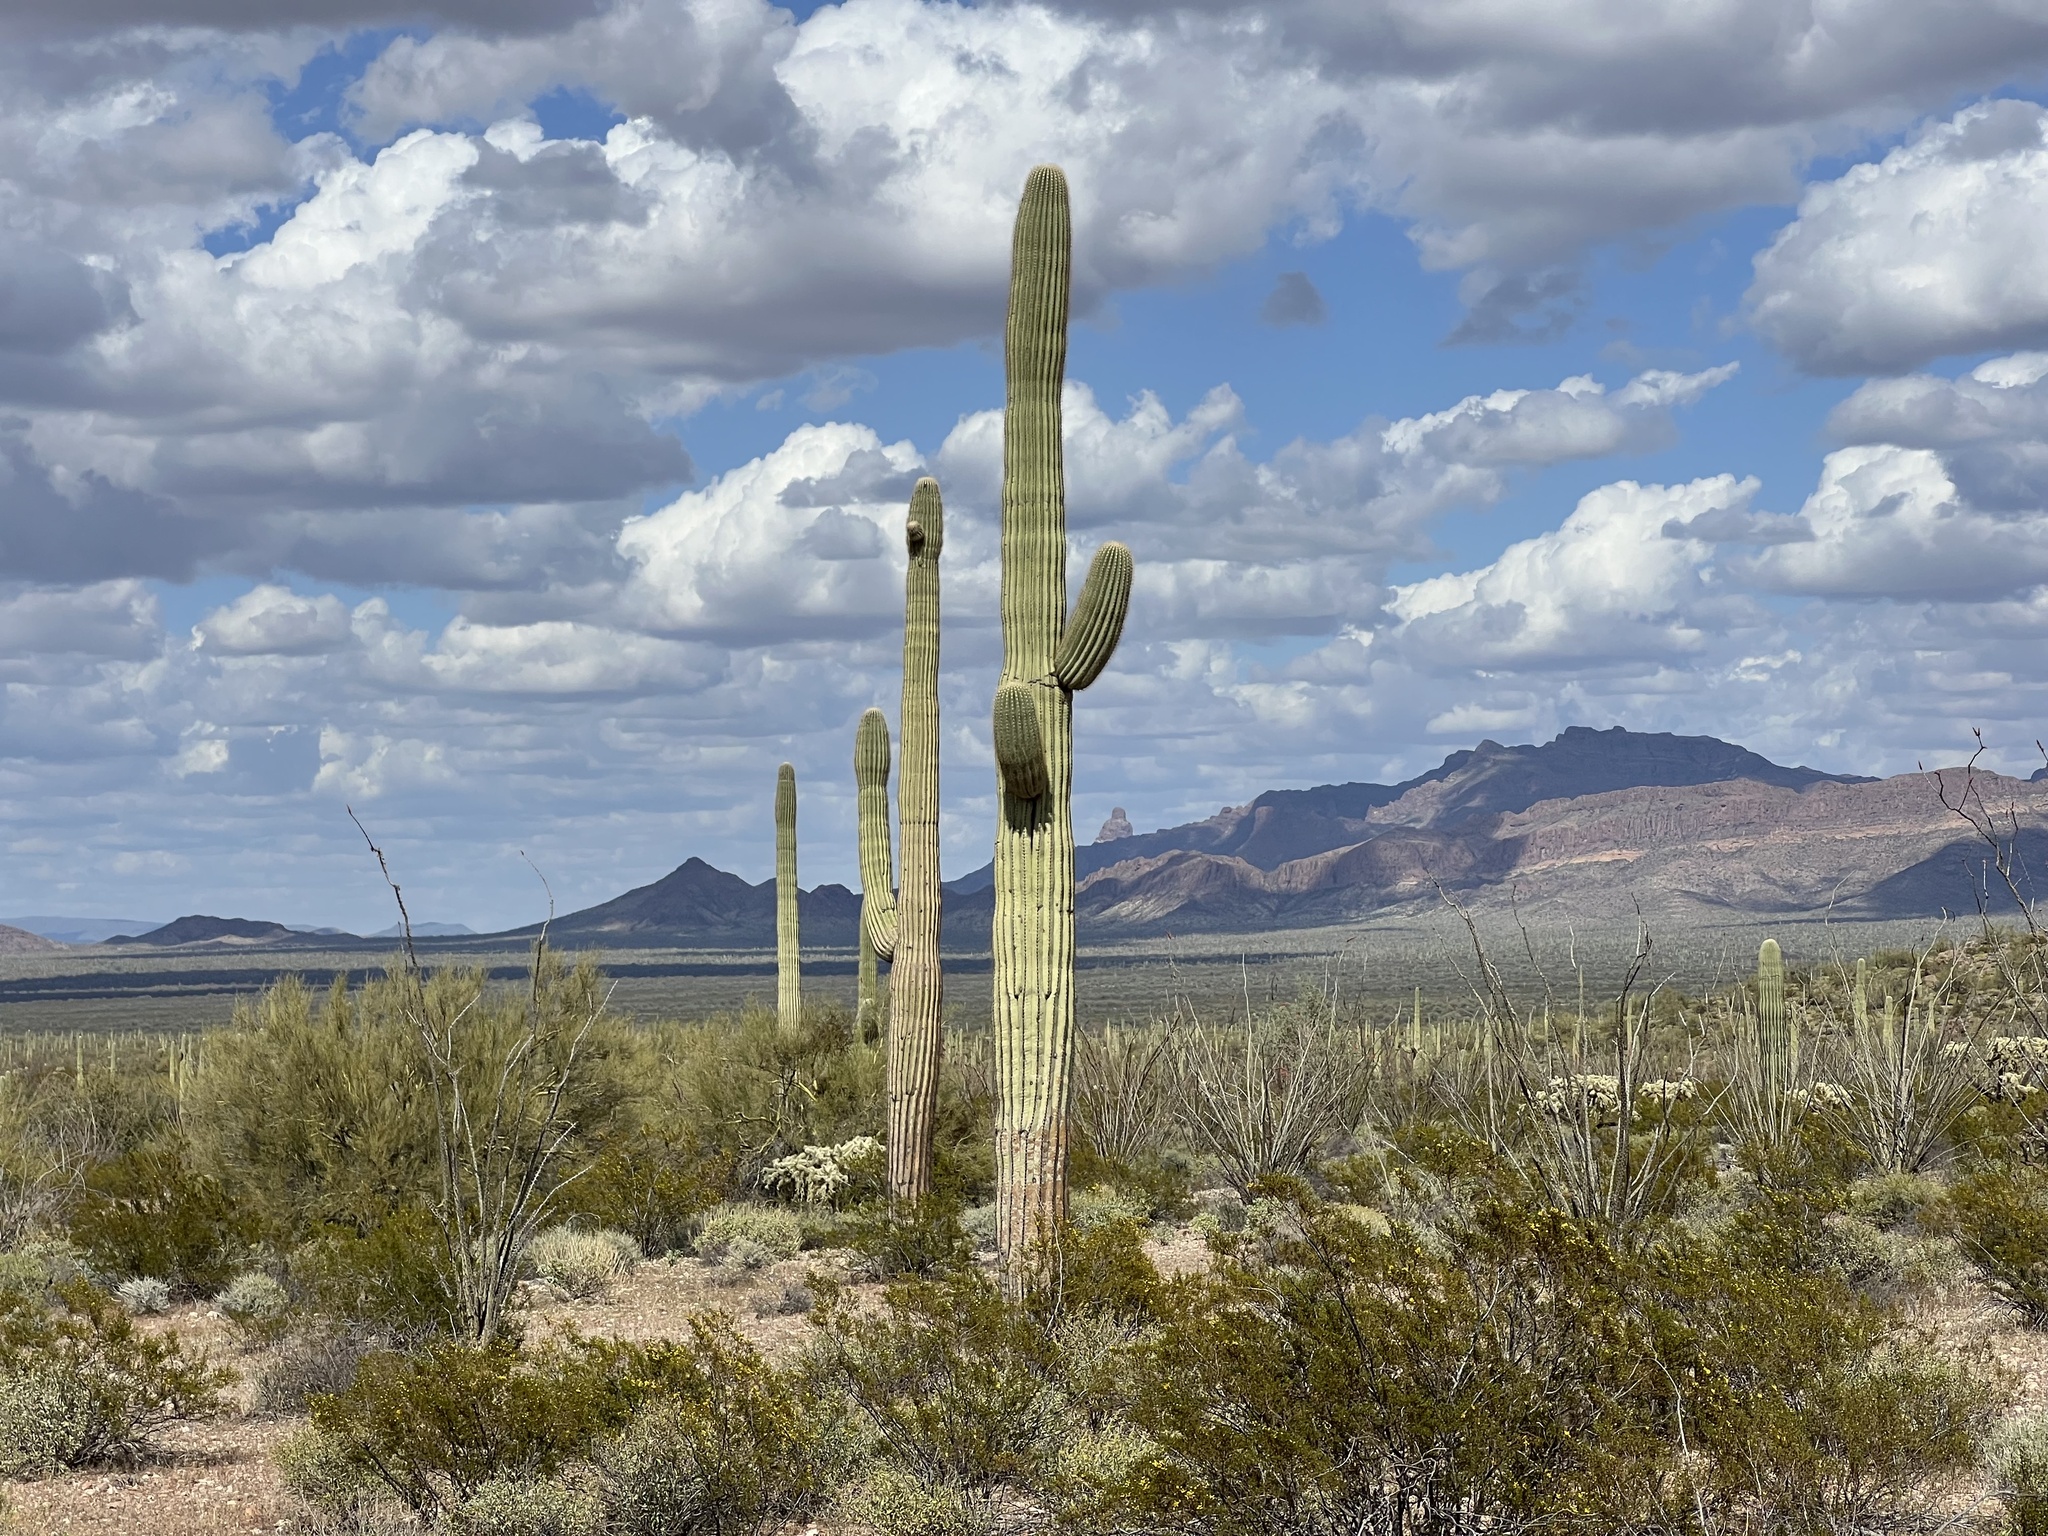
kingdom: Plantae
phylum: Tracheophyta
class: Magnoliopsida
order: Caryophyllales
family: Cactaceae
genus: Carnegiea
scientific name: Carnegiea gigantea
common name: Saguaro
